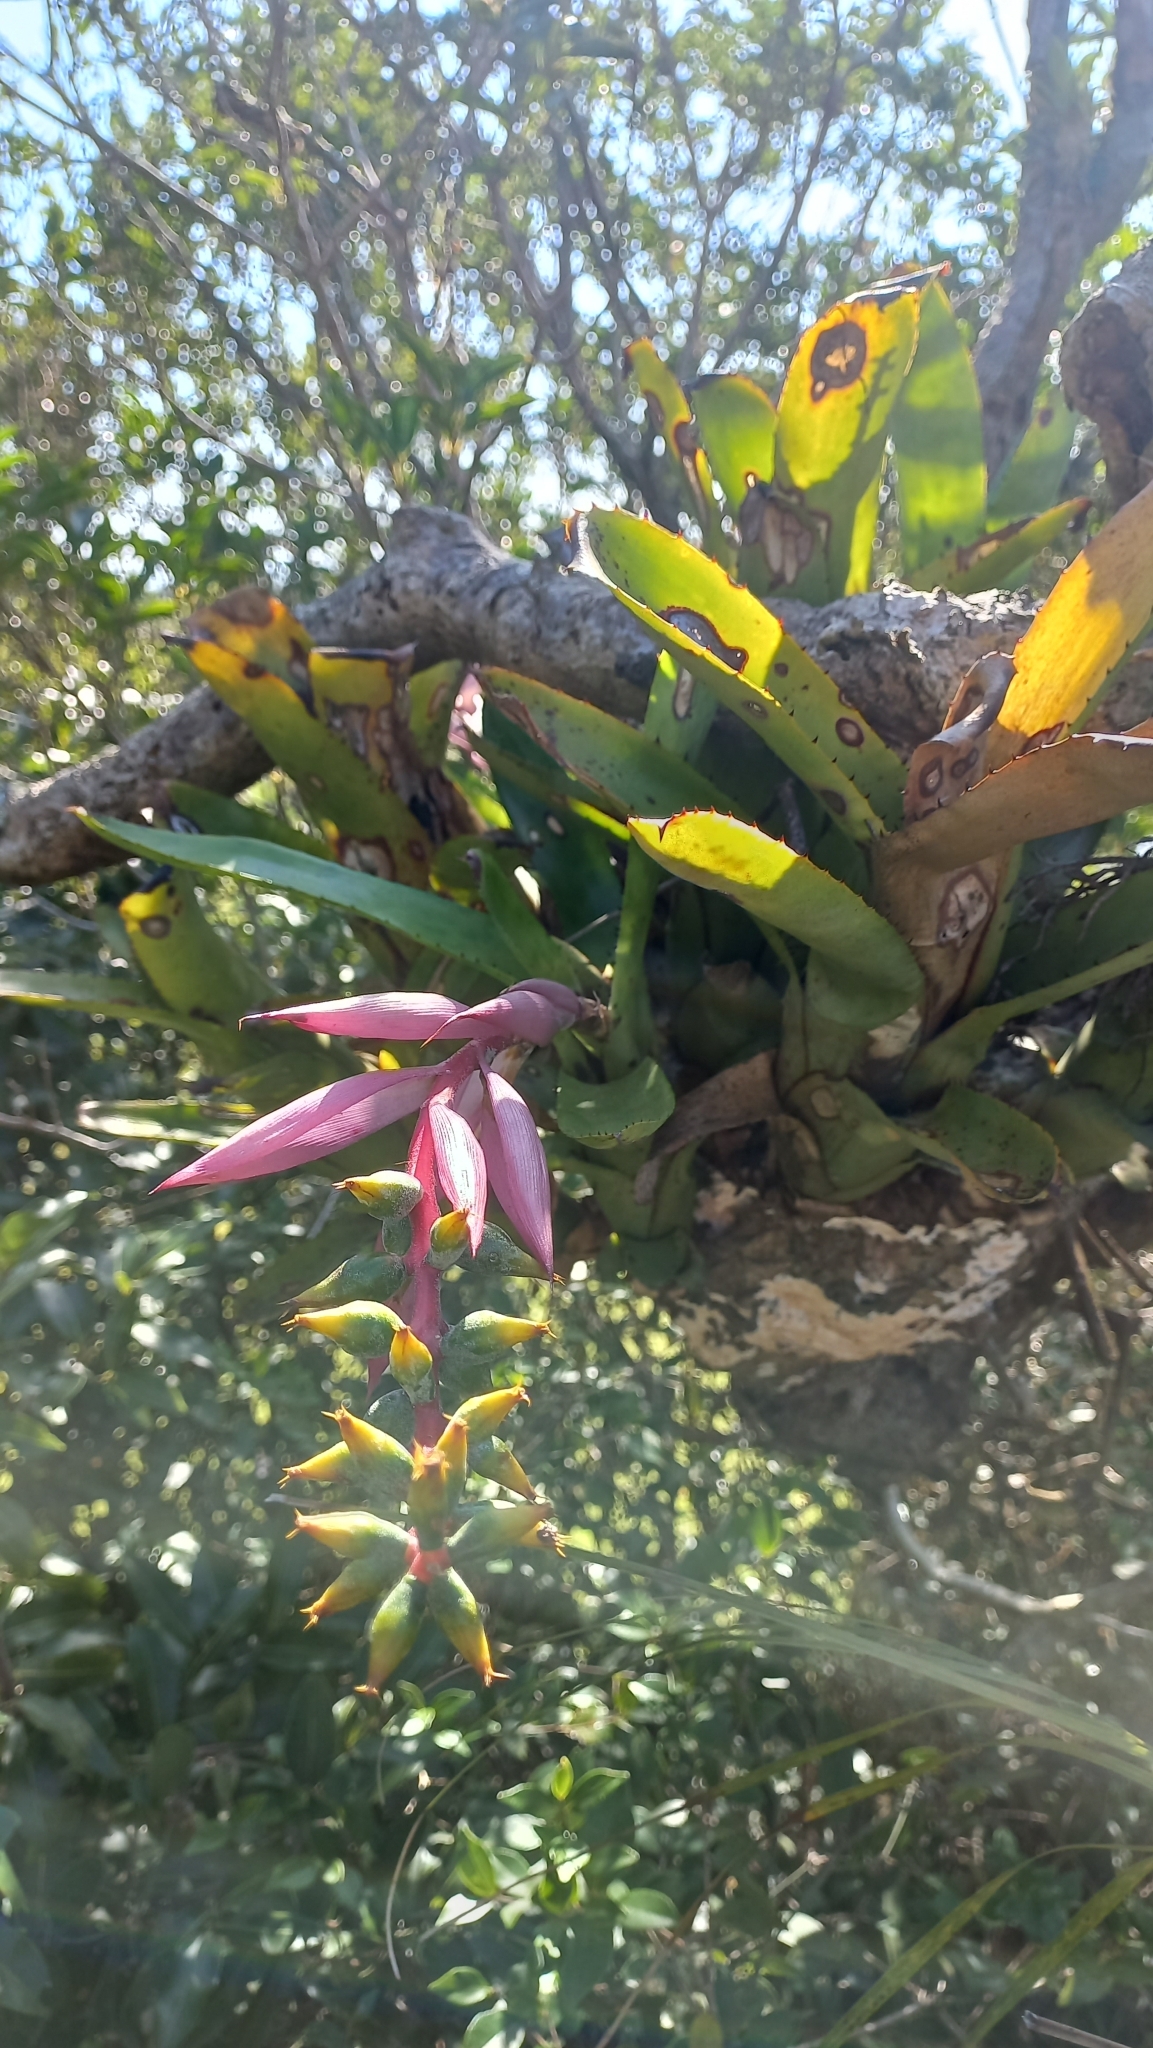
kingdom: Plantae
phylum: Tracheophyta
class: Liliopsida
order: Poales
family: Bromeliaceae
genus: Aechmea
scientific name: Aechmea nudicaulis
